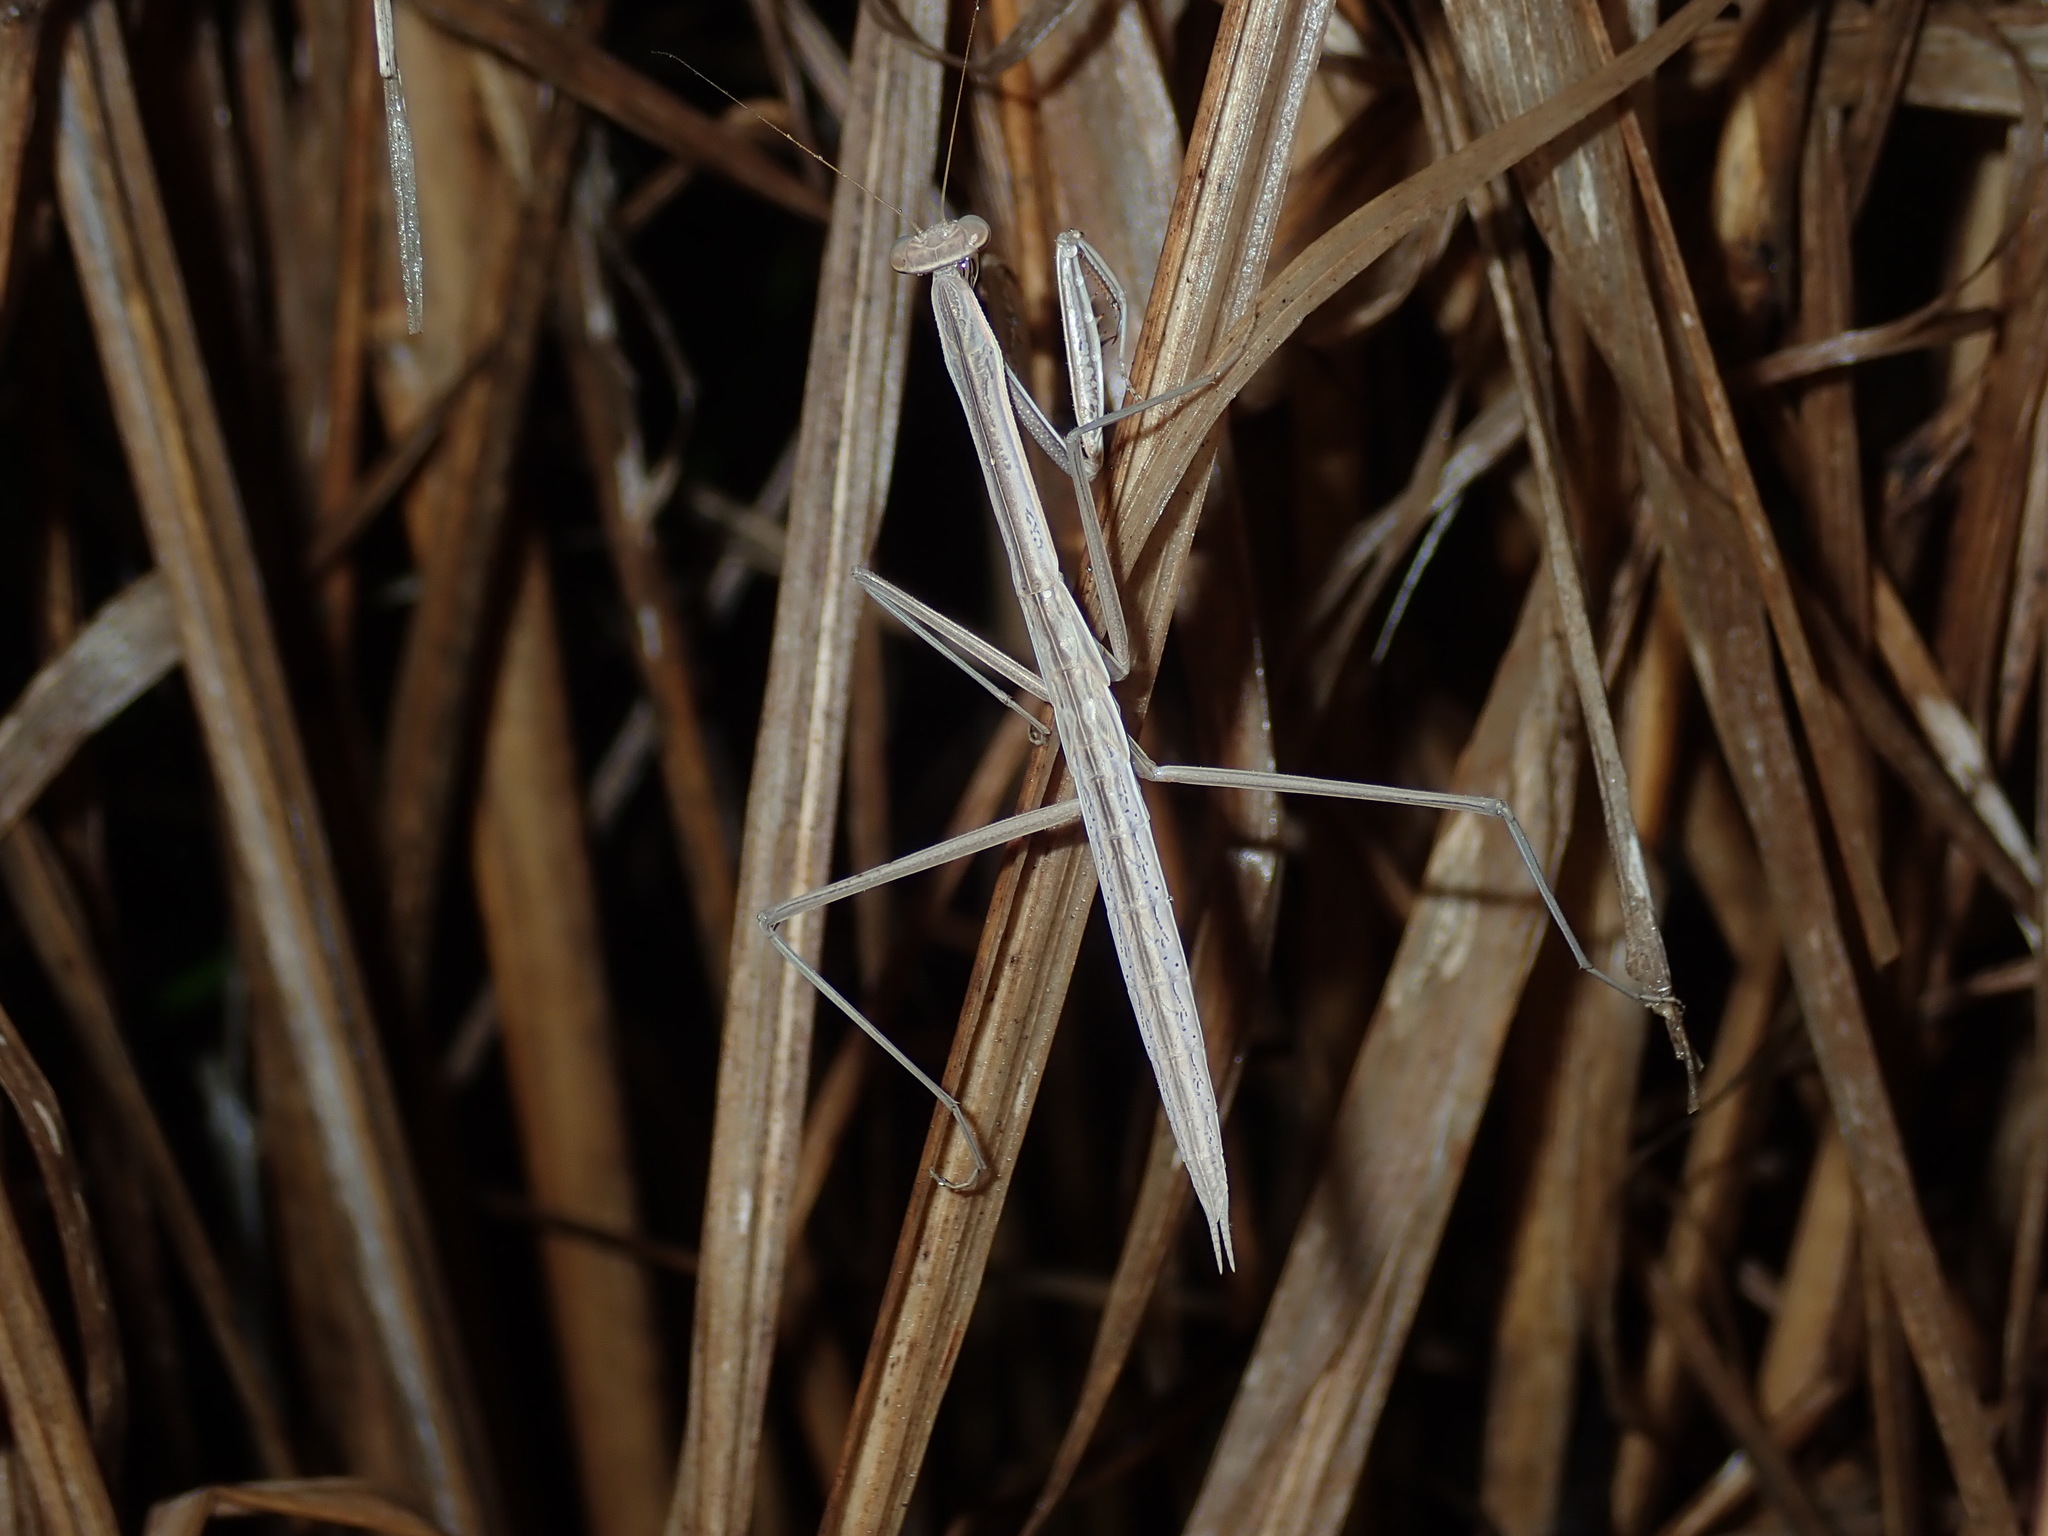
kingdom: Animalia
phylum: Arthropoda
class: Insecta
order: Mantodea
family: Mantidae
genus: Tenodera
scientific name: Tenodera australasiae
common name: Purple-winged mantis
